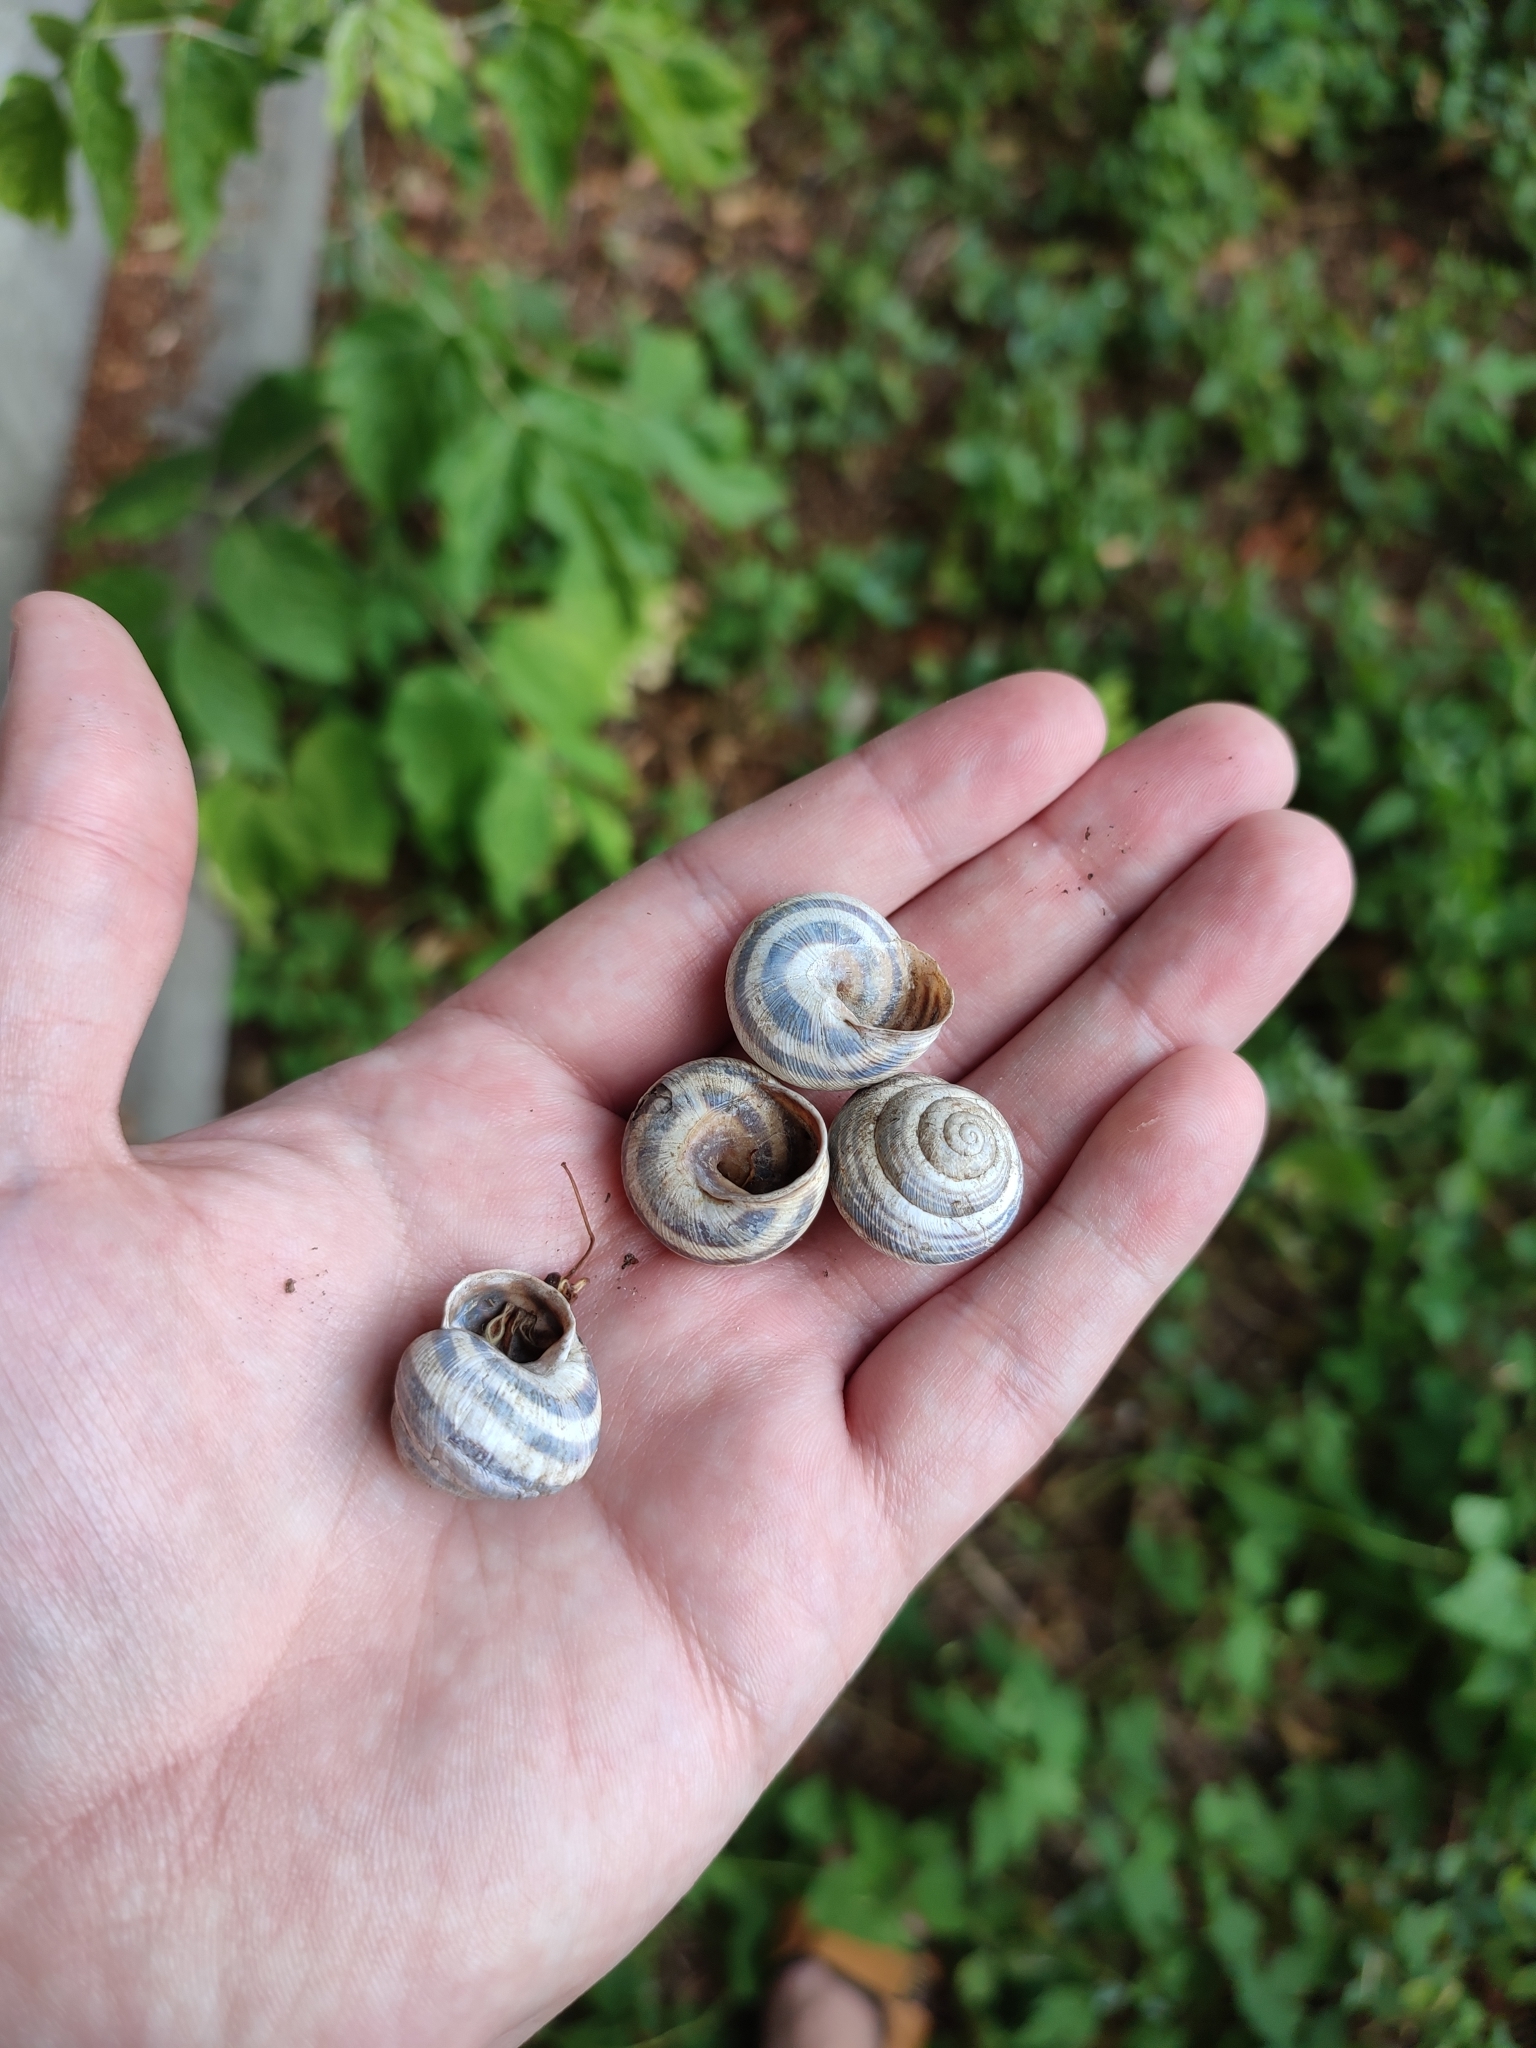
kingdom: Animalia
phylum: Mollusca
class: Gastropoda
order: Stylommatophora
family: Helicidae
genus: Caucasotachea
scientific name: Caucasotachea vindobonensis
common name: European helicid land snail
